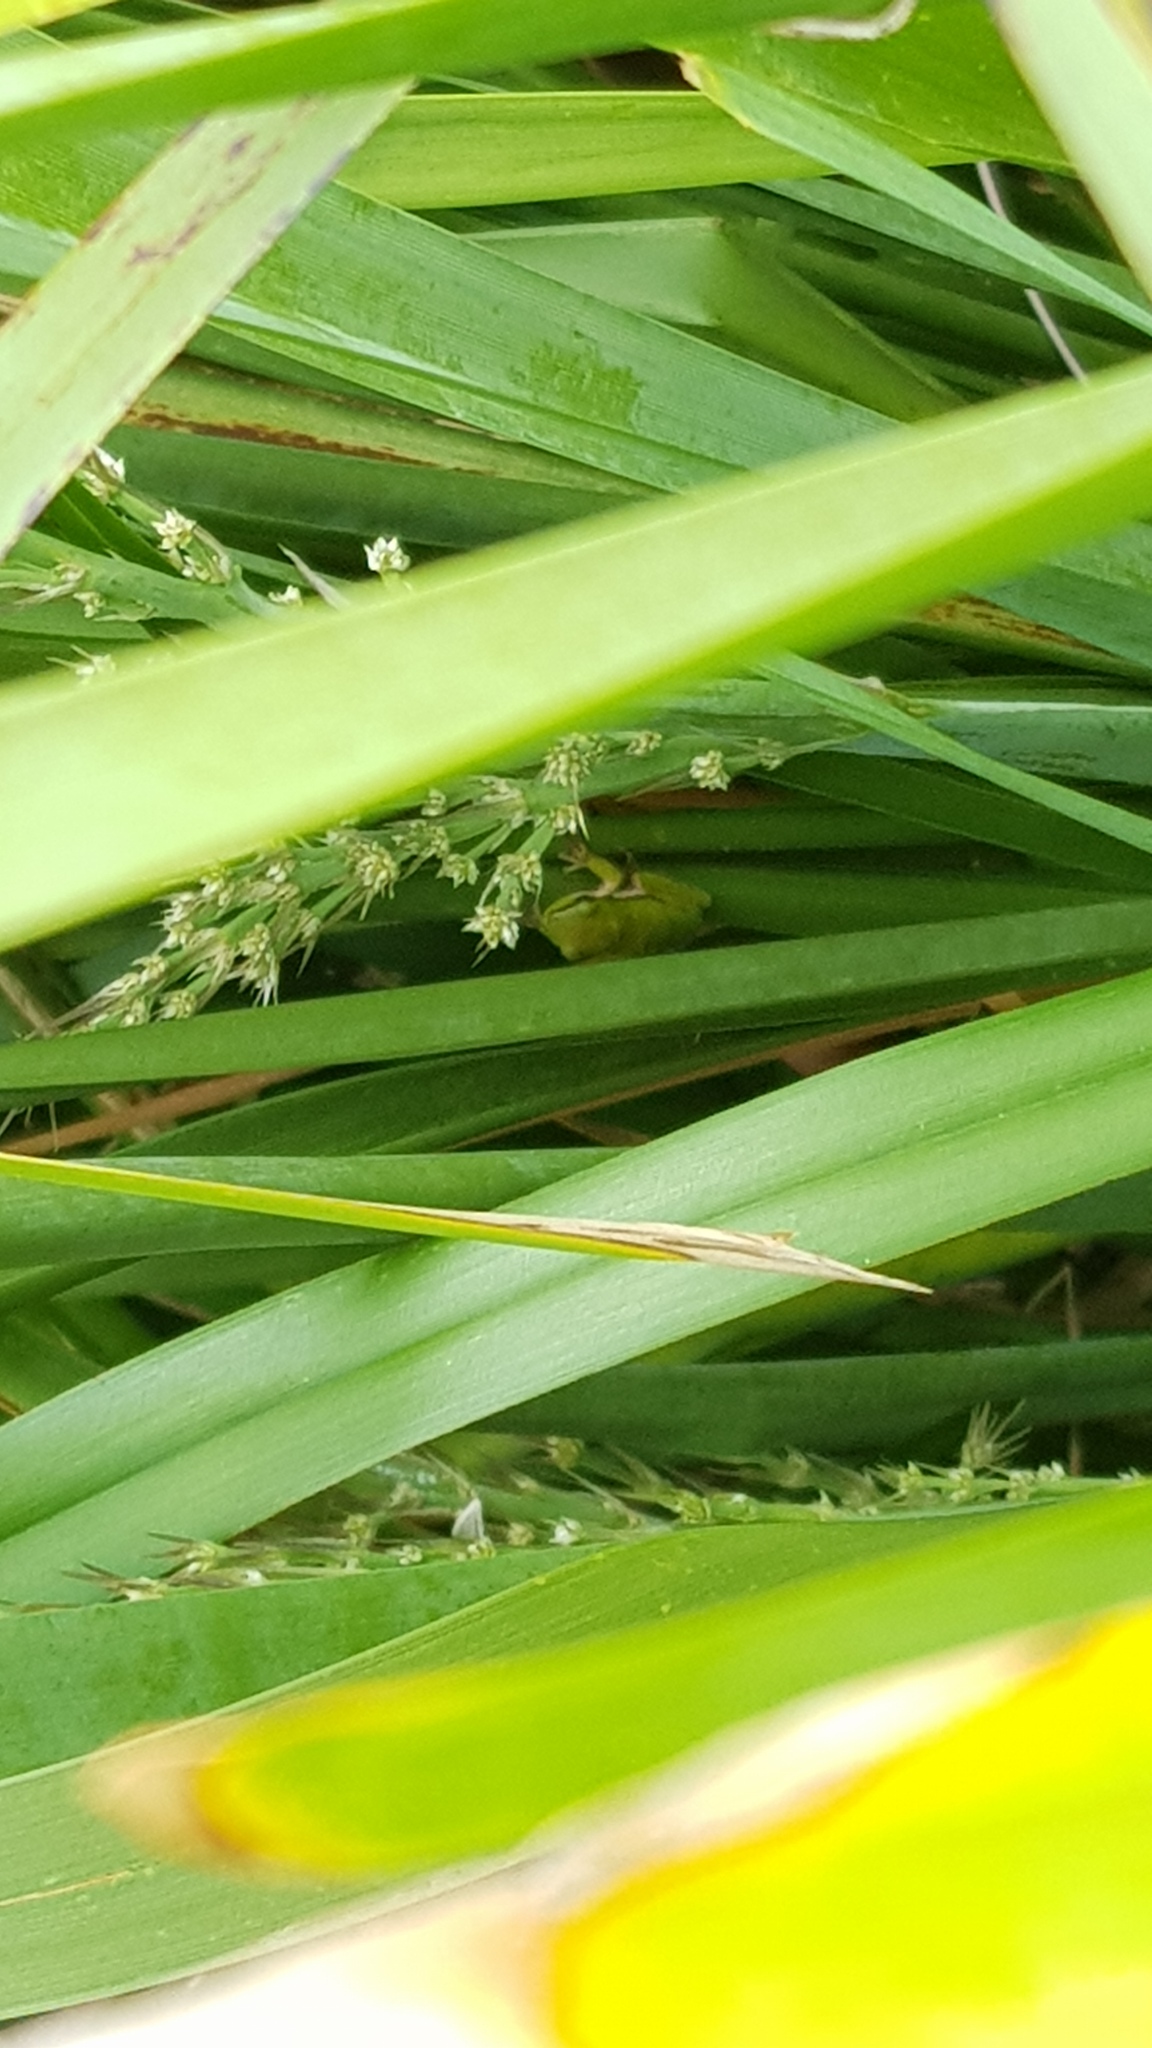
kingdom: Animalia
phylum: Chordata
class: Amphibia
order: Anura
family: Pelodryadidae
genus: Litoria
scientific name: Litoria fallax
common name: Eastern dwarf treefrog
